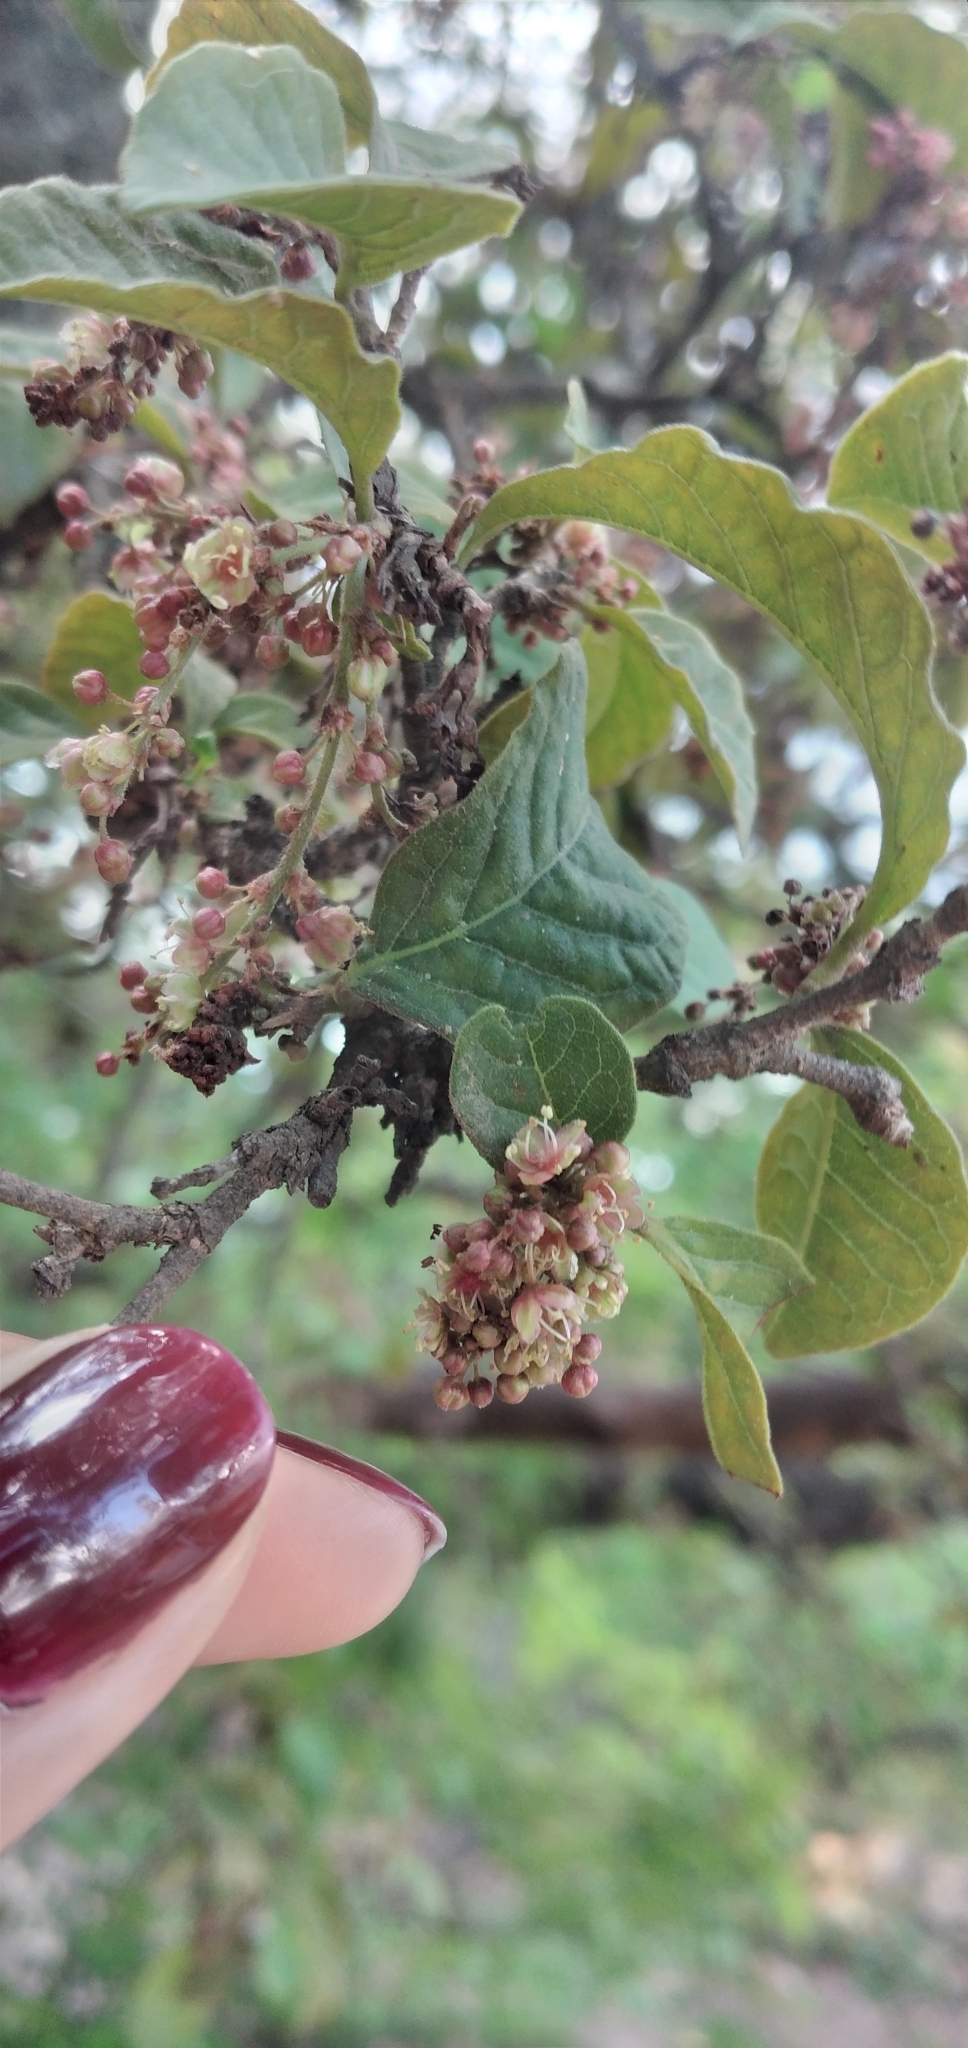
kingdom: Plantae
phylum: Tracheophyta
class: Magnoliopsida
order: Caryophyllales
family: Polygonaceae
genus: Ruprechtia
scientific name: Ruprechtia apetala
